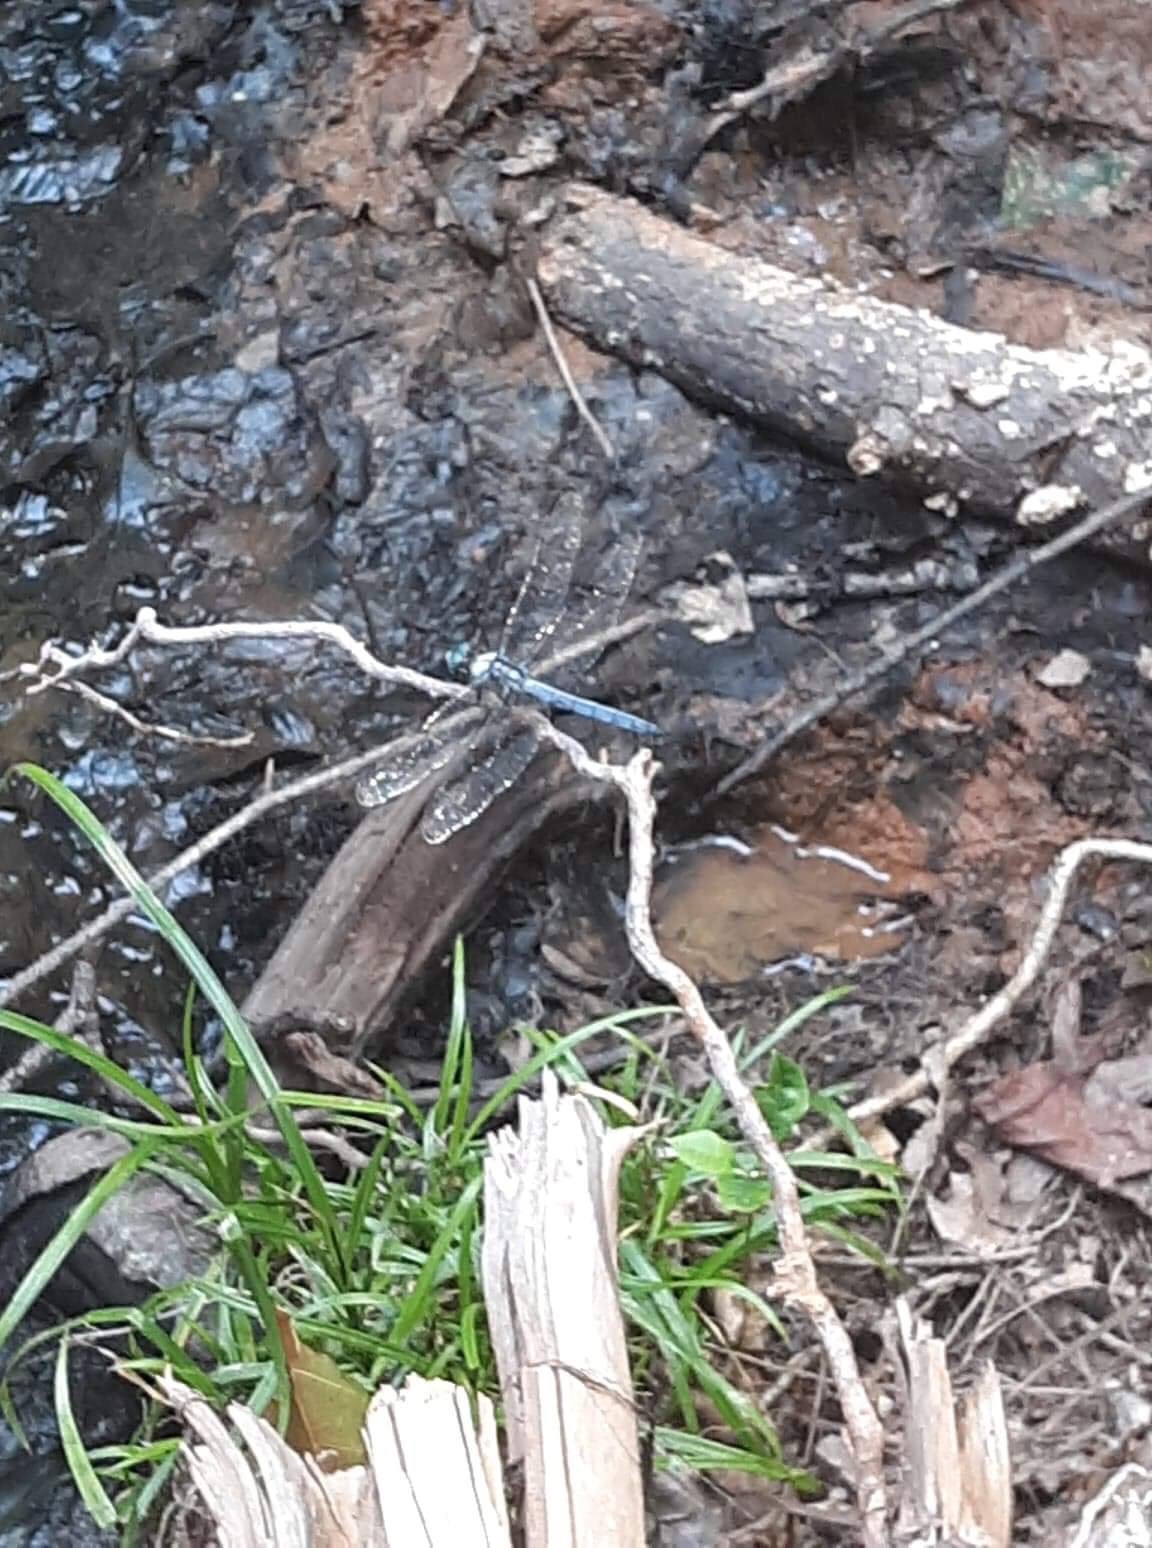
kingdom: Animalia
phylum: Arthropoda
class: Insecta
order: Odonata
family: Libellulidae
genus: Libellula
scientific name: Libellula vibrans
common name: Great blue skimmer
